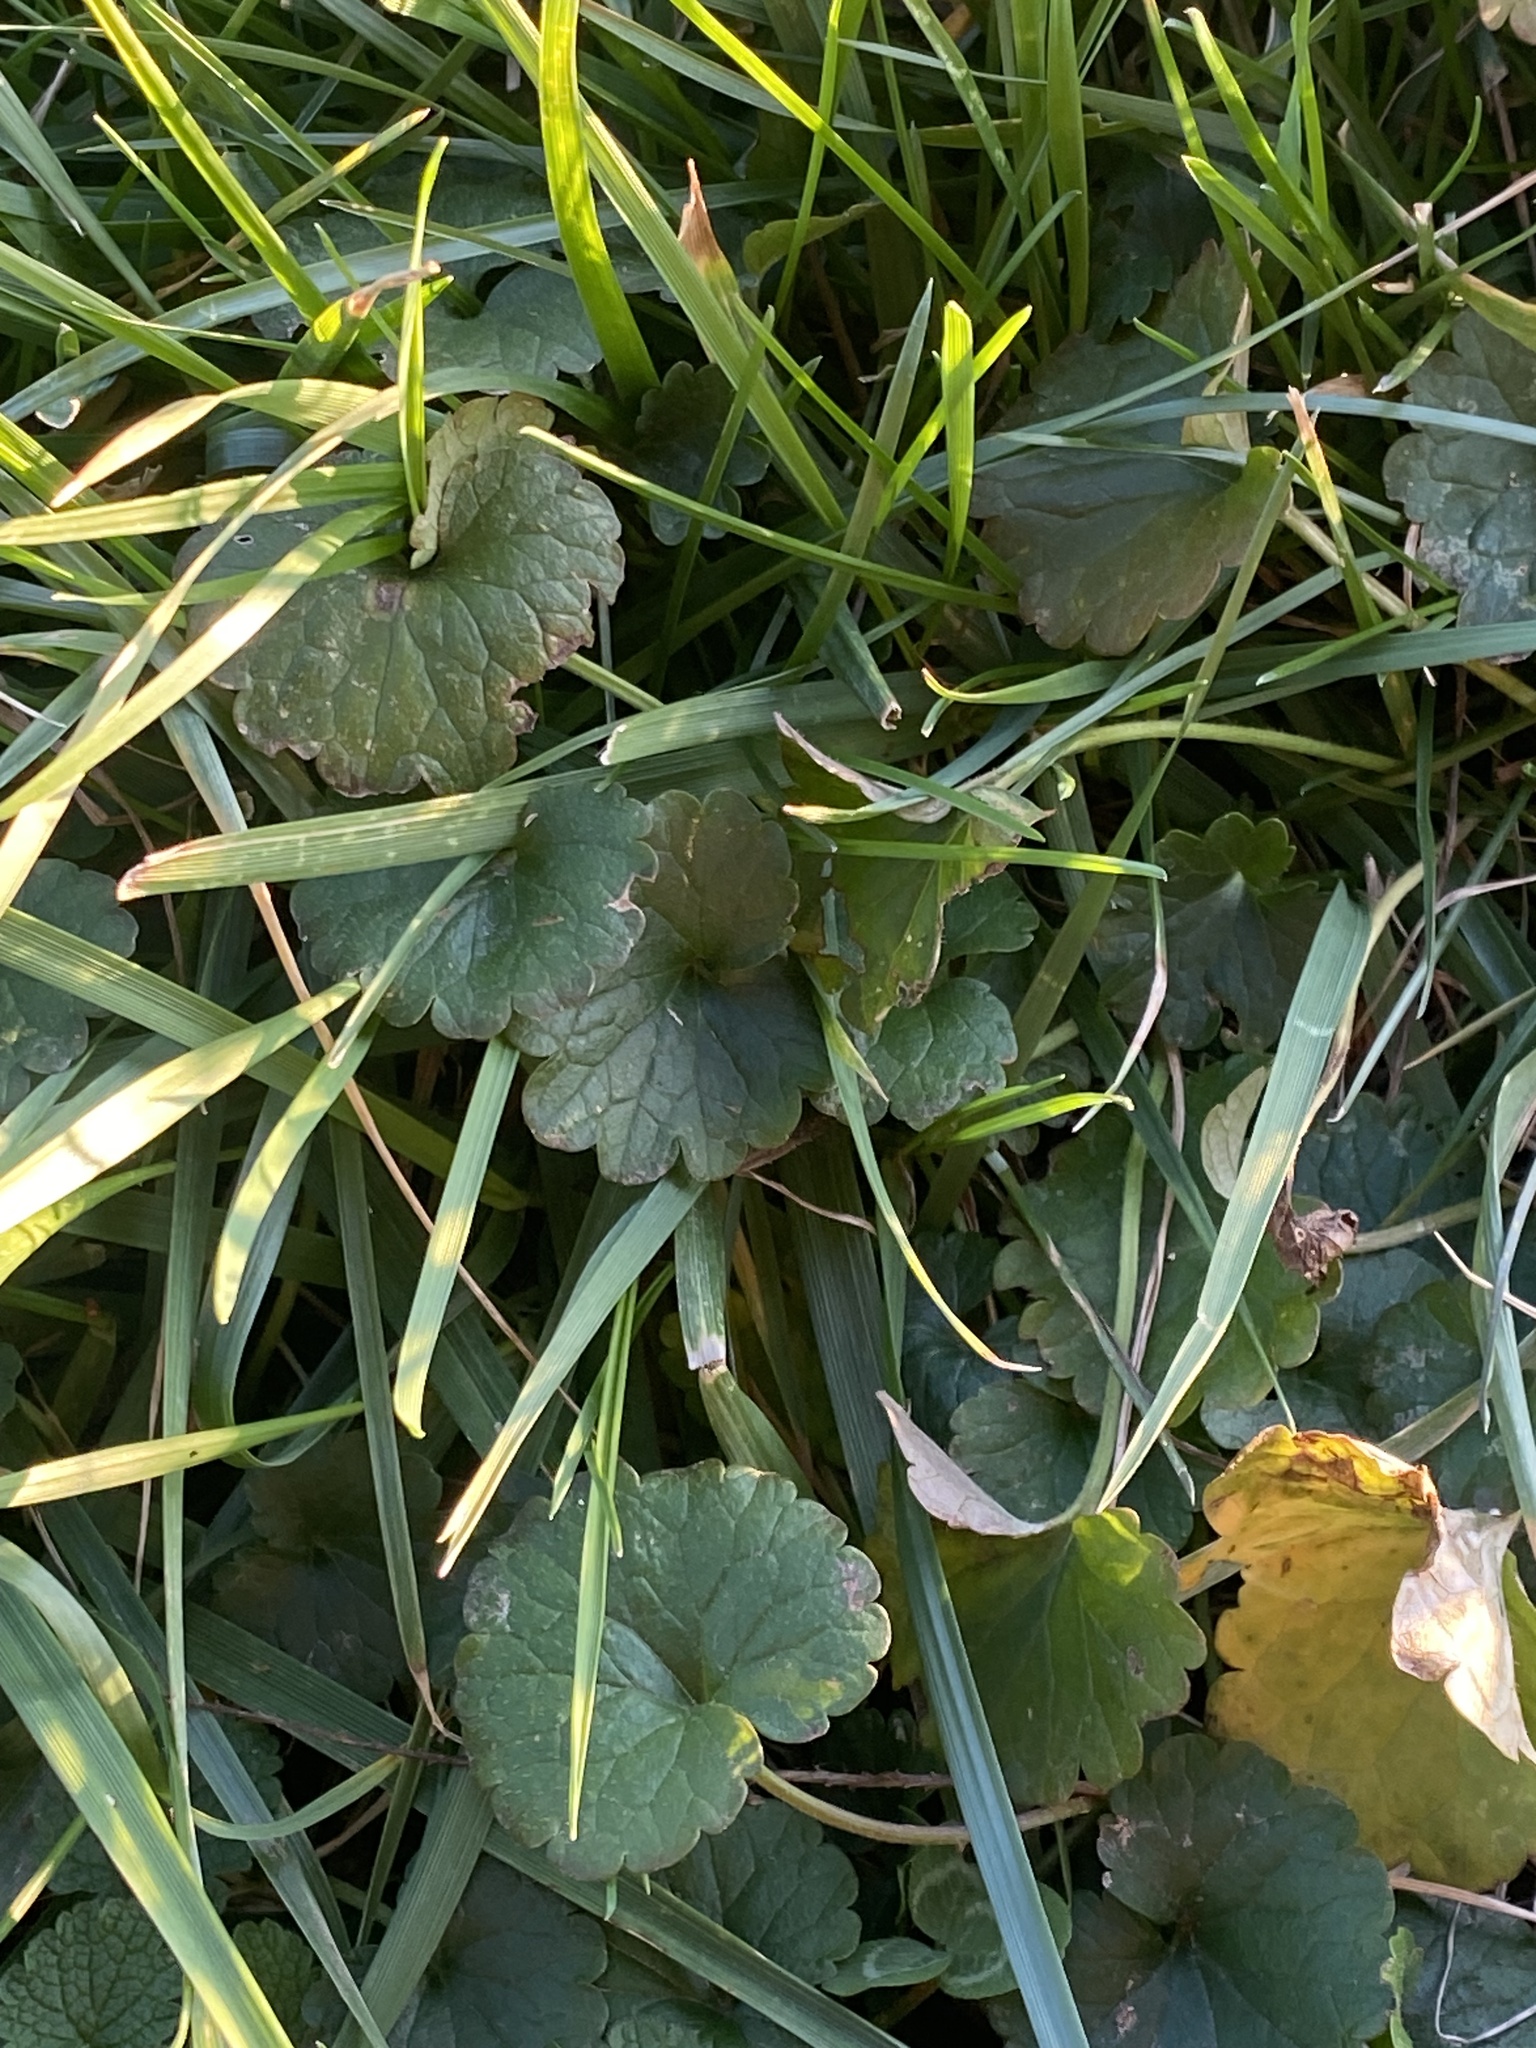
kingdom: Plantae
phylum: Tracheophyta
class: Magnoliopsida
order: Lamiales
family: Lamiaceae
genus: Glechoma
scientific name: Glechoma hederacea
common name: Ground ivy
